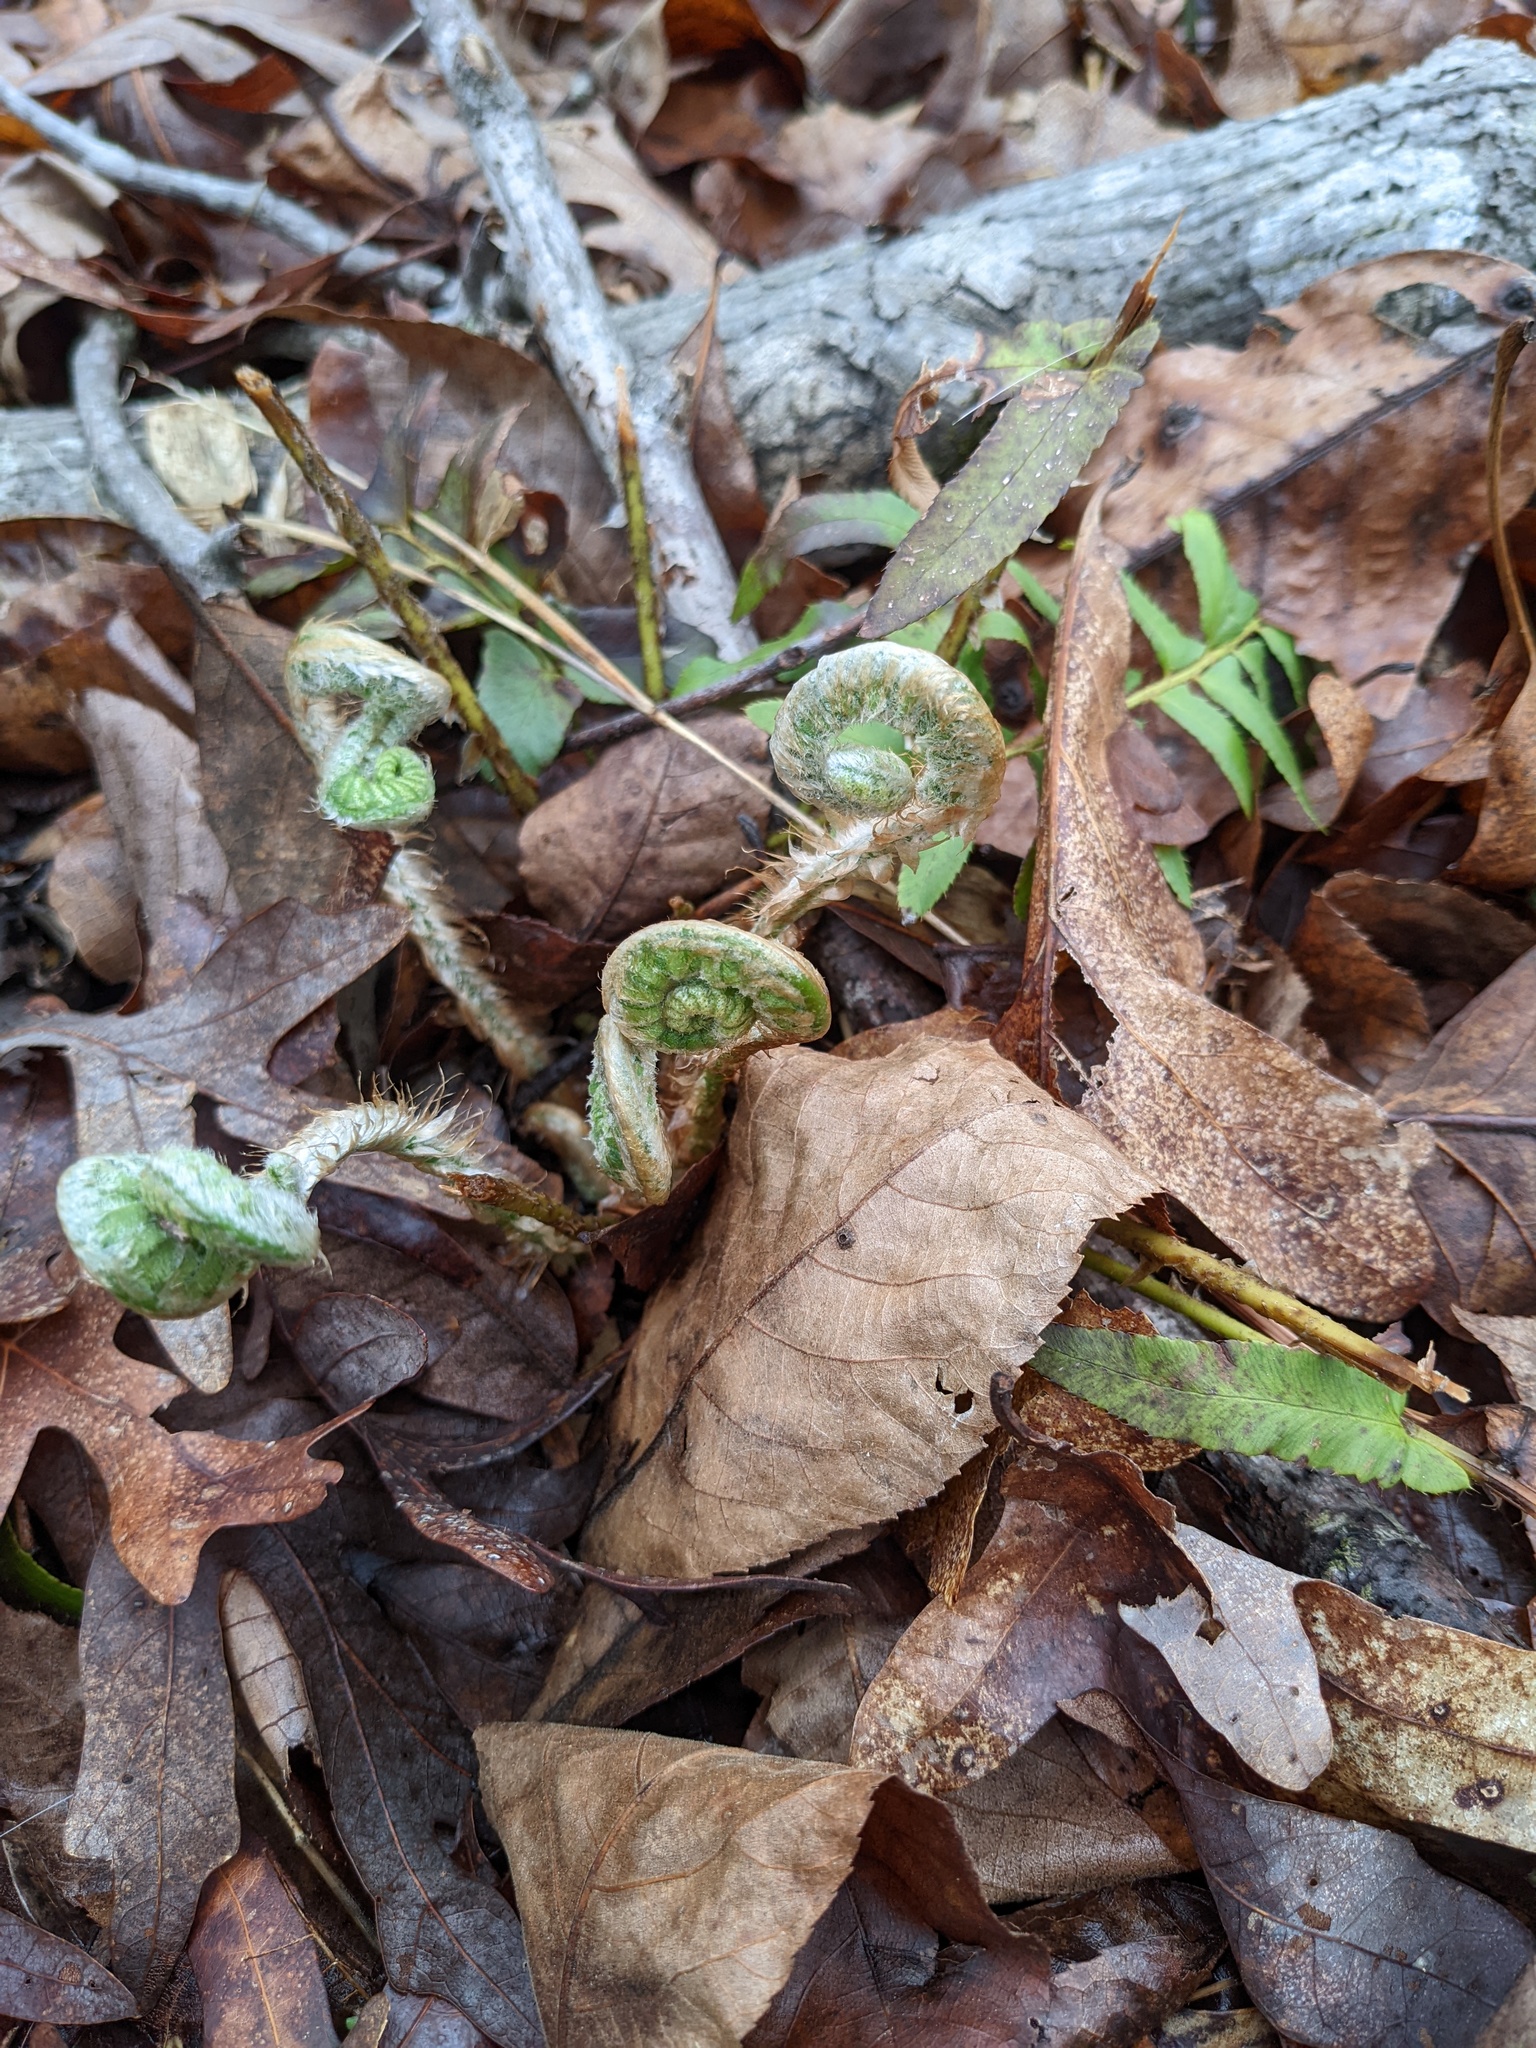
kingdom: Plantae
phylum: Tracheophyta
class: Polypodiopsida
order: Polypodiales
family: Dryopteridaceae
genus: Polystichum
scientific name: Polystichum acrostichoides
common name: Christmas fern
